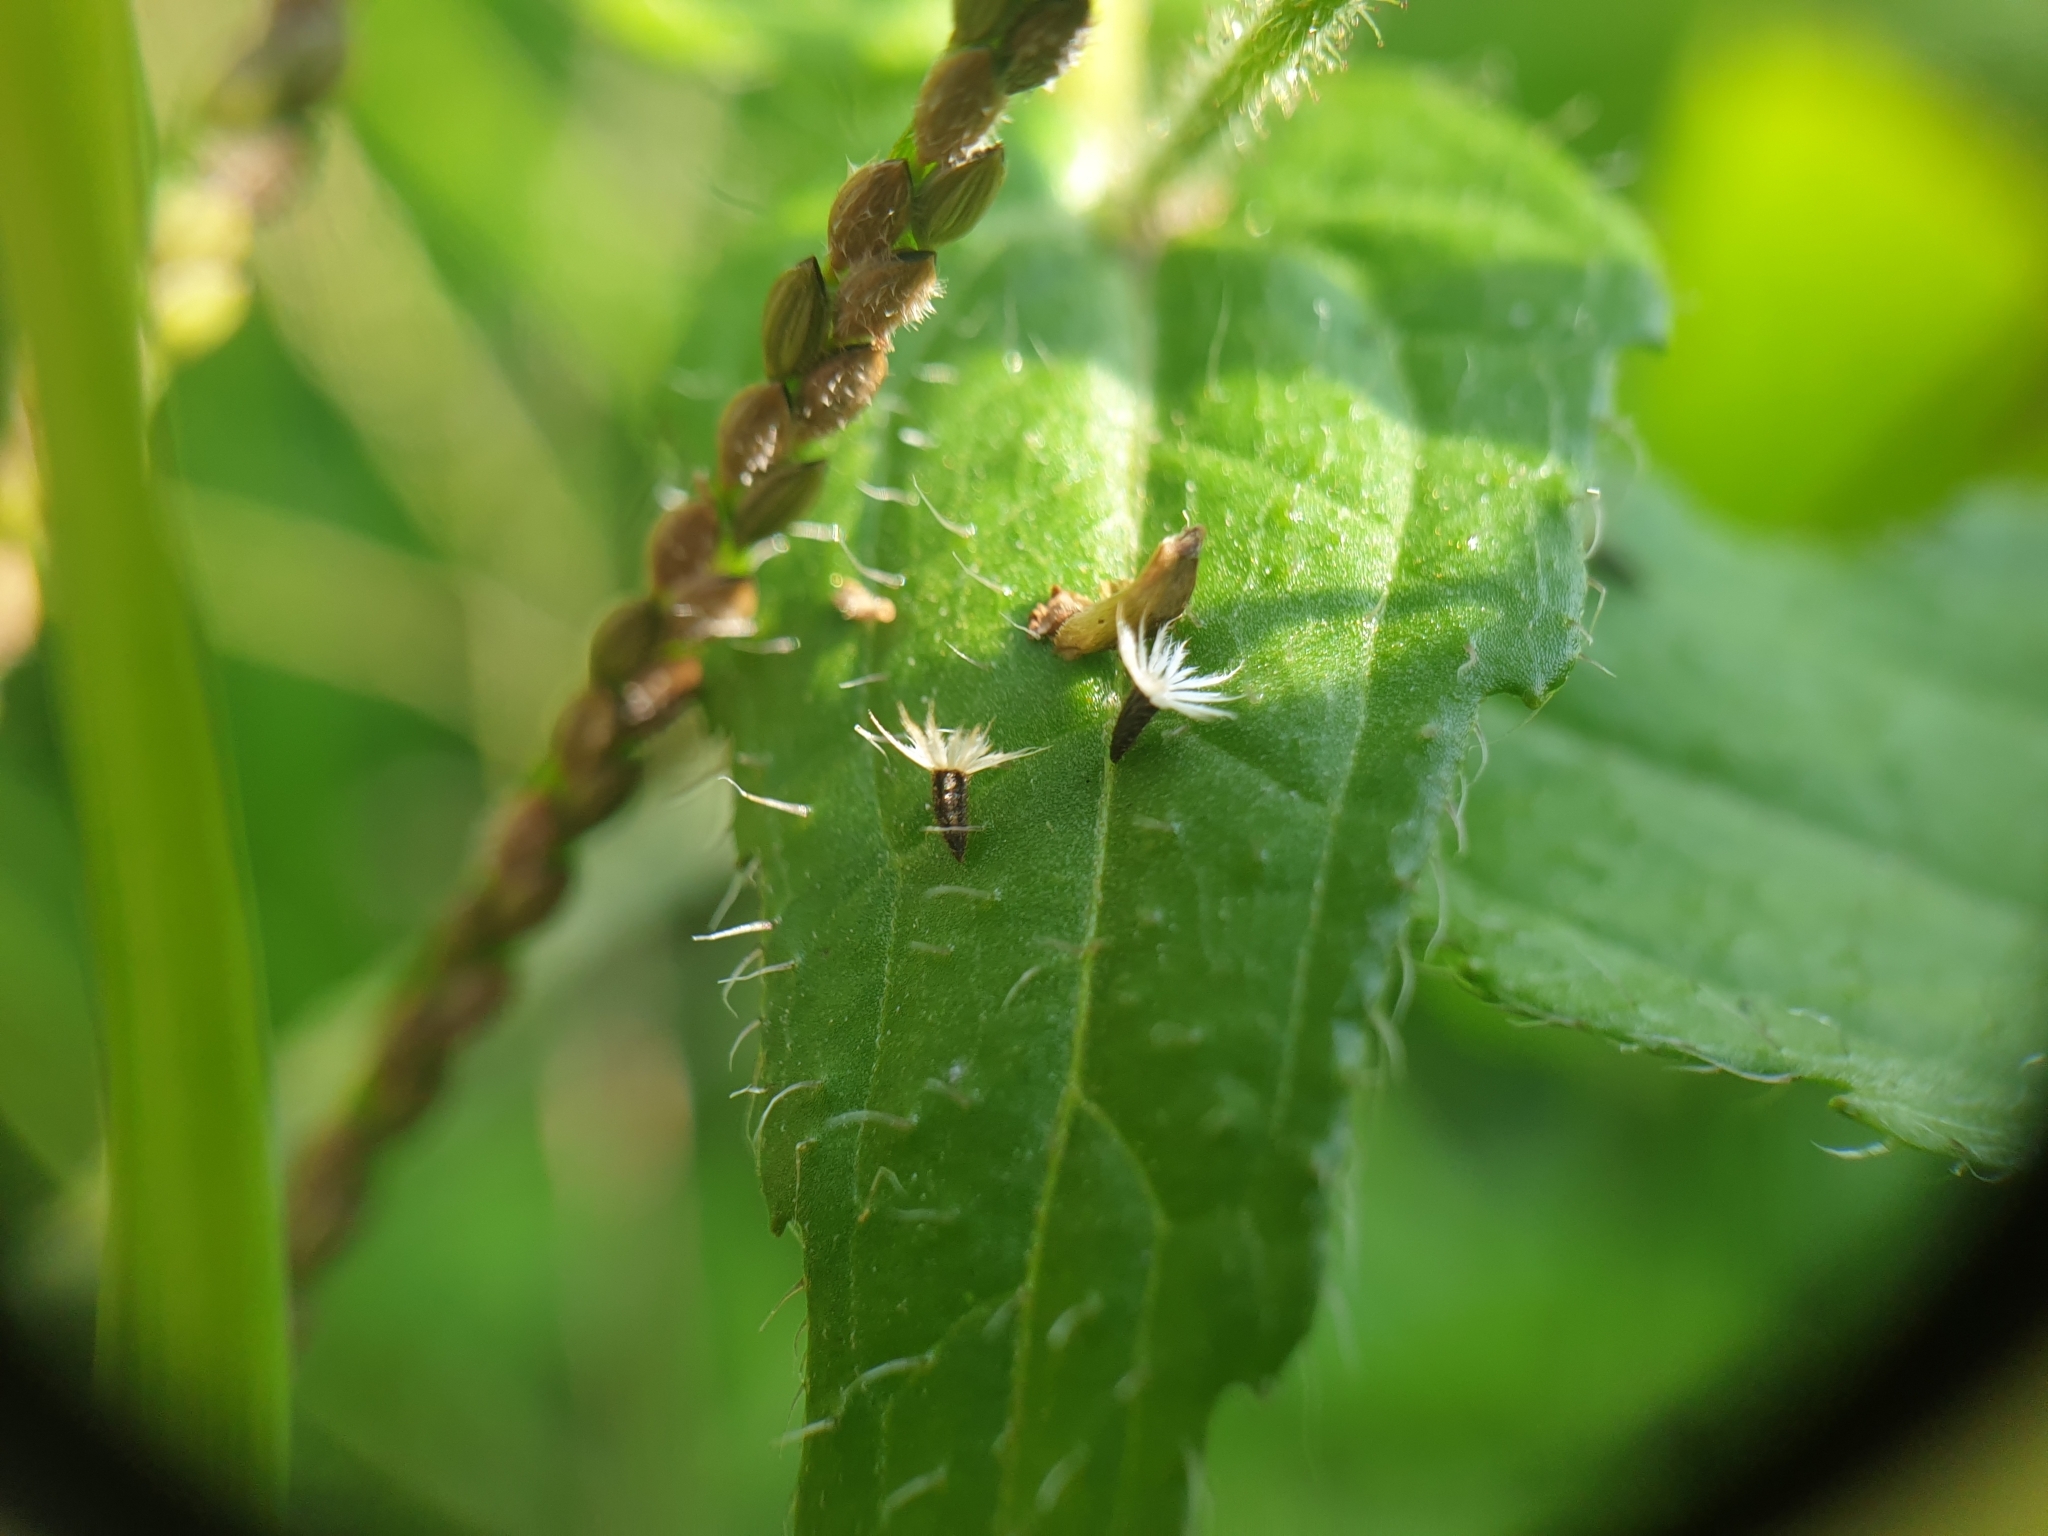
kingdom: Plantae
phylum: Tracheophyta
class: Magnoliopsida
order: Asterales
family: Asteraceae
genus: Galinsoga
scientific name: Galinsoga quadriradiata
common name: Shaggy soldier
